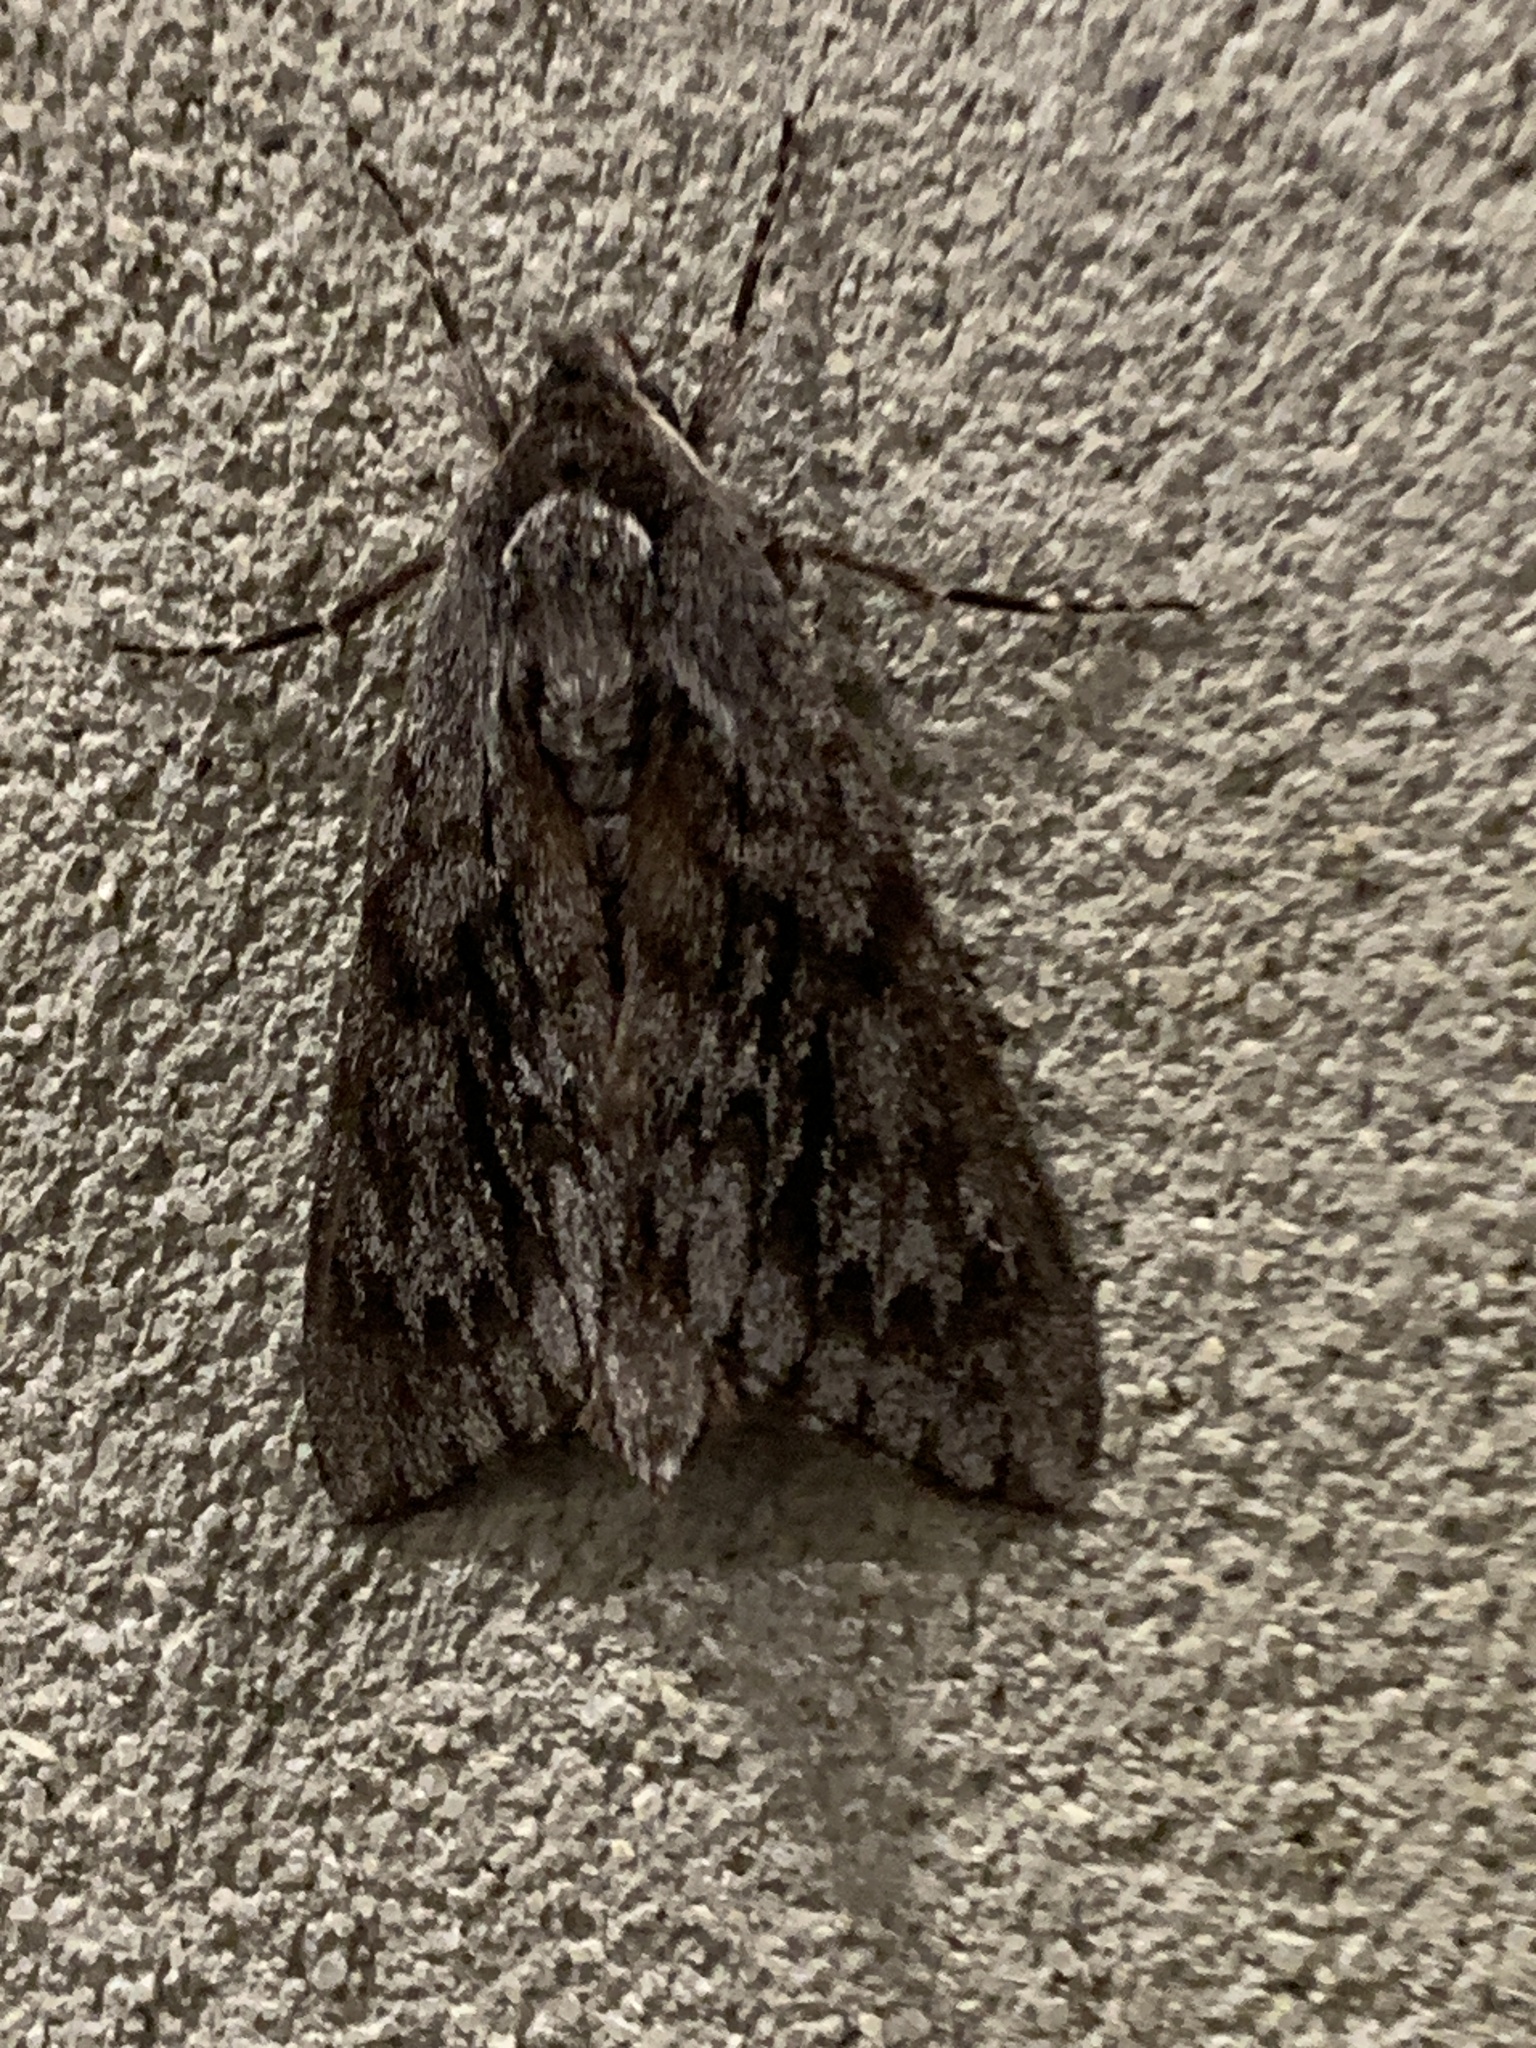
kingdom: Animalia
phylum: Arthropoda
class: Insecta
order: Lepidoptera
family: Sphingidae
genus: Lapara
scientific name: Lapara bombycoides
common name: Northern pine sphinx
